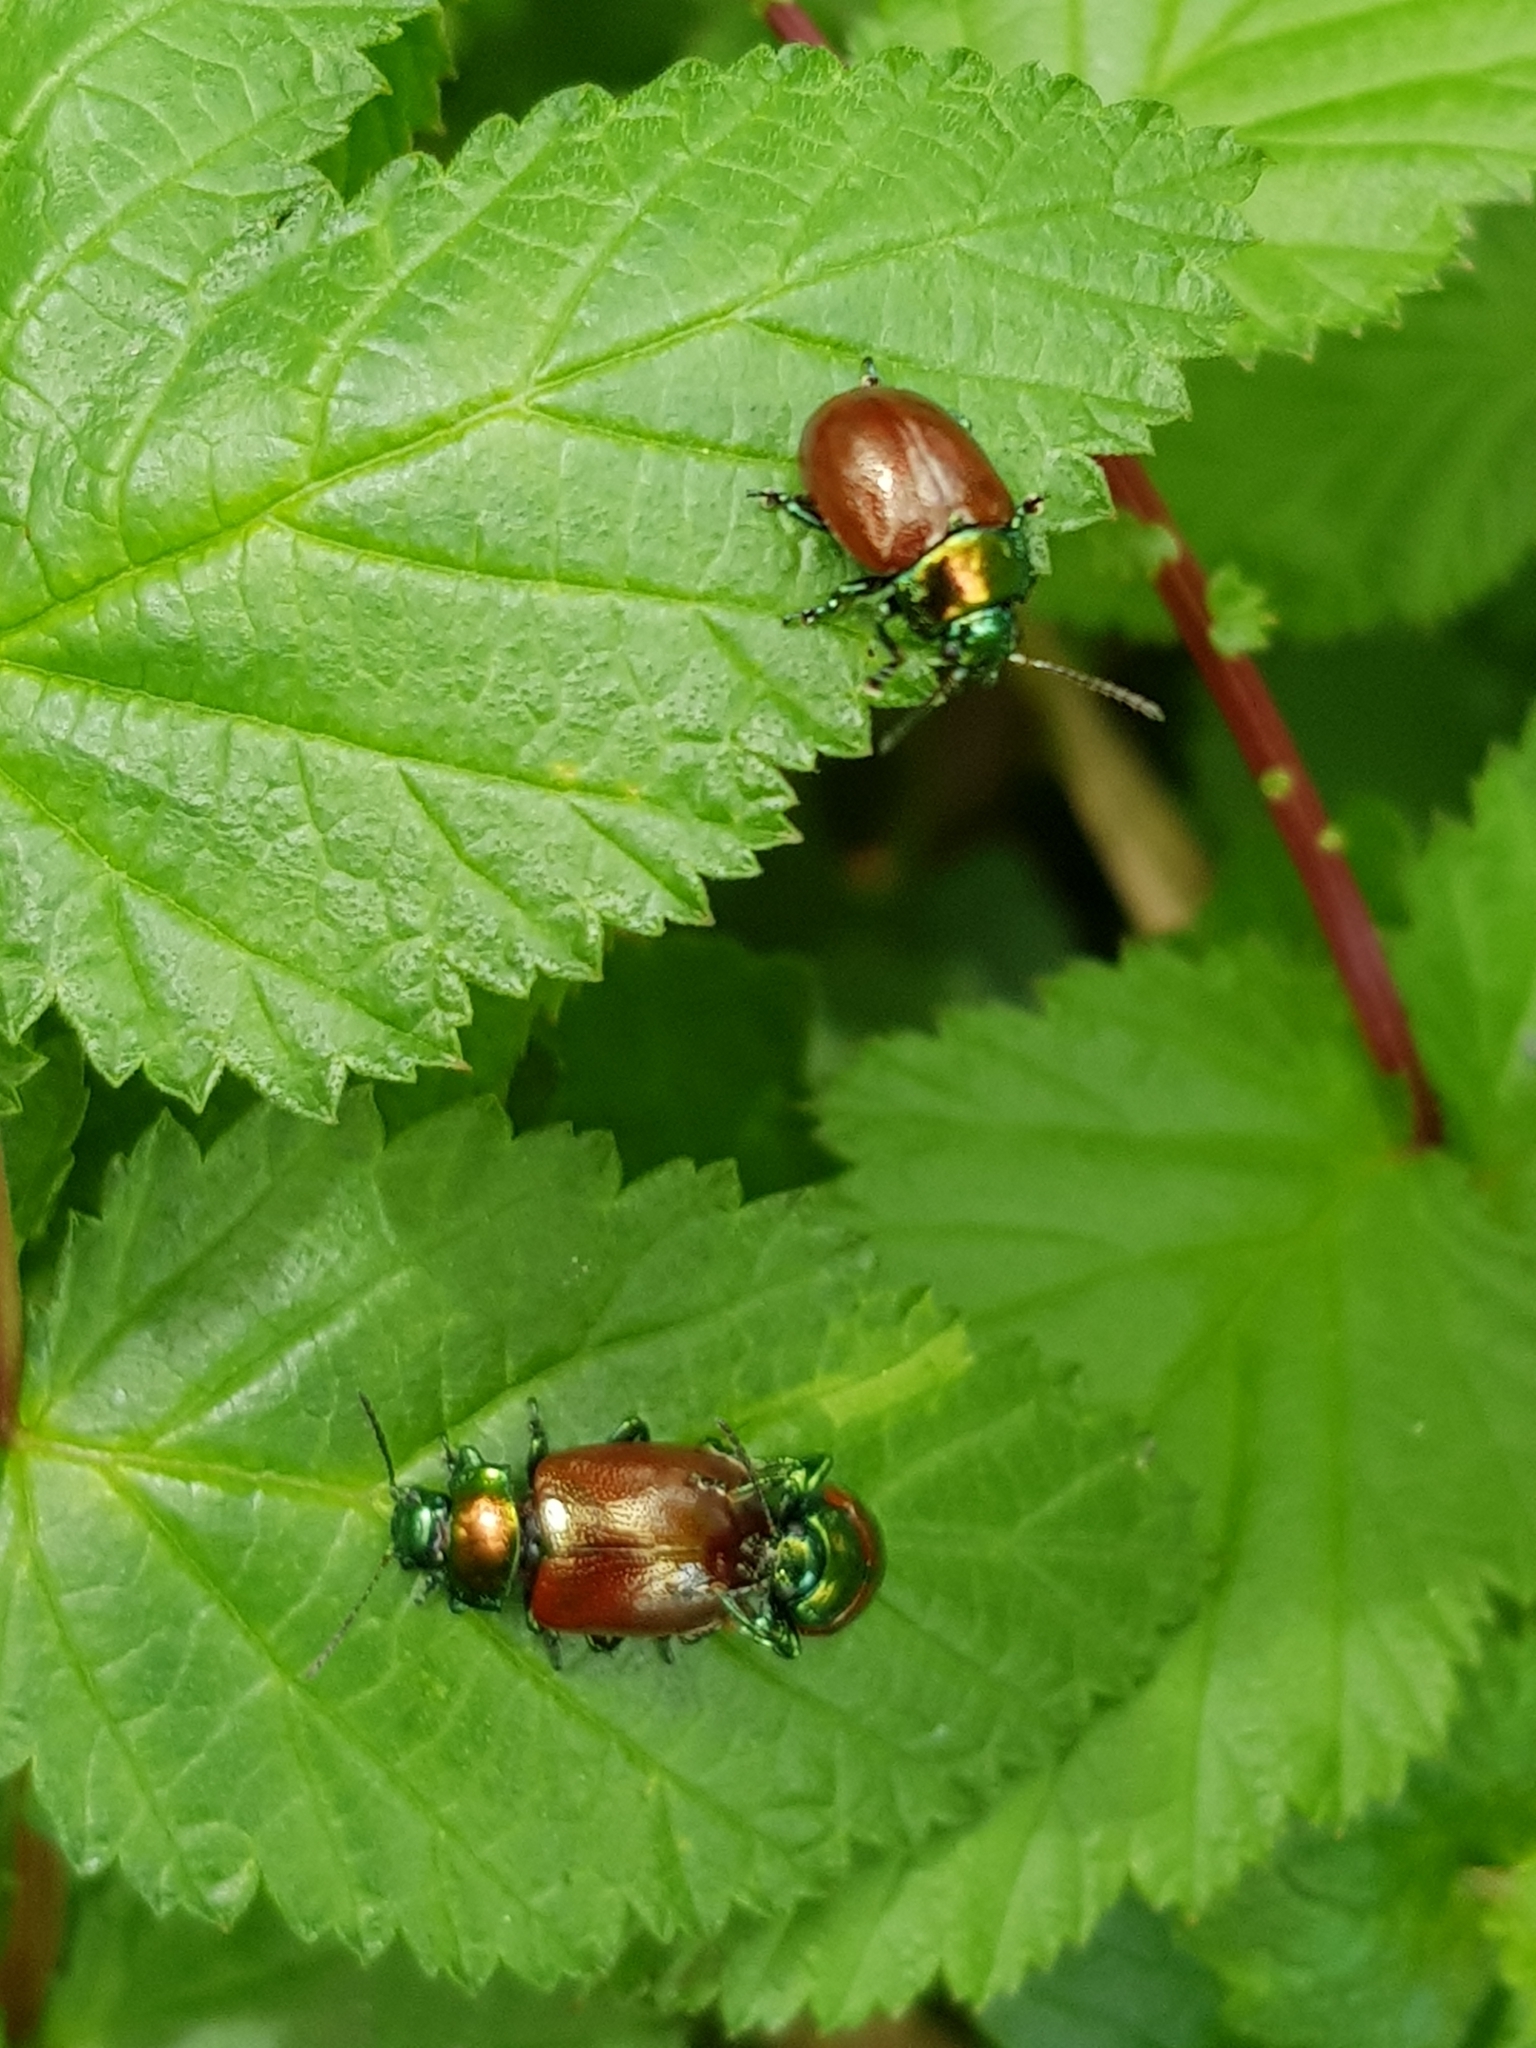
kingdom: Animalia
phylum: Arthropoda
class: Insecta
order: Coleoptera
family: Chrysomelidae
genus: Chrysomela
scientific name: Chrysomela polita
